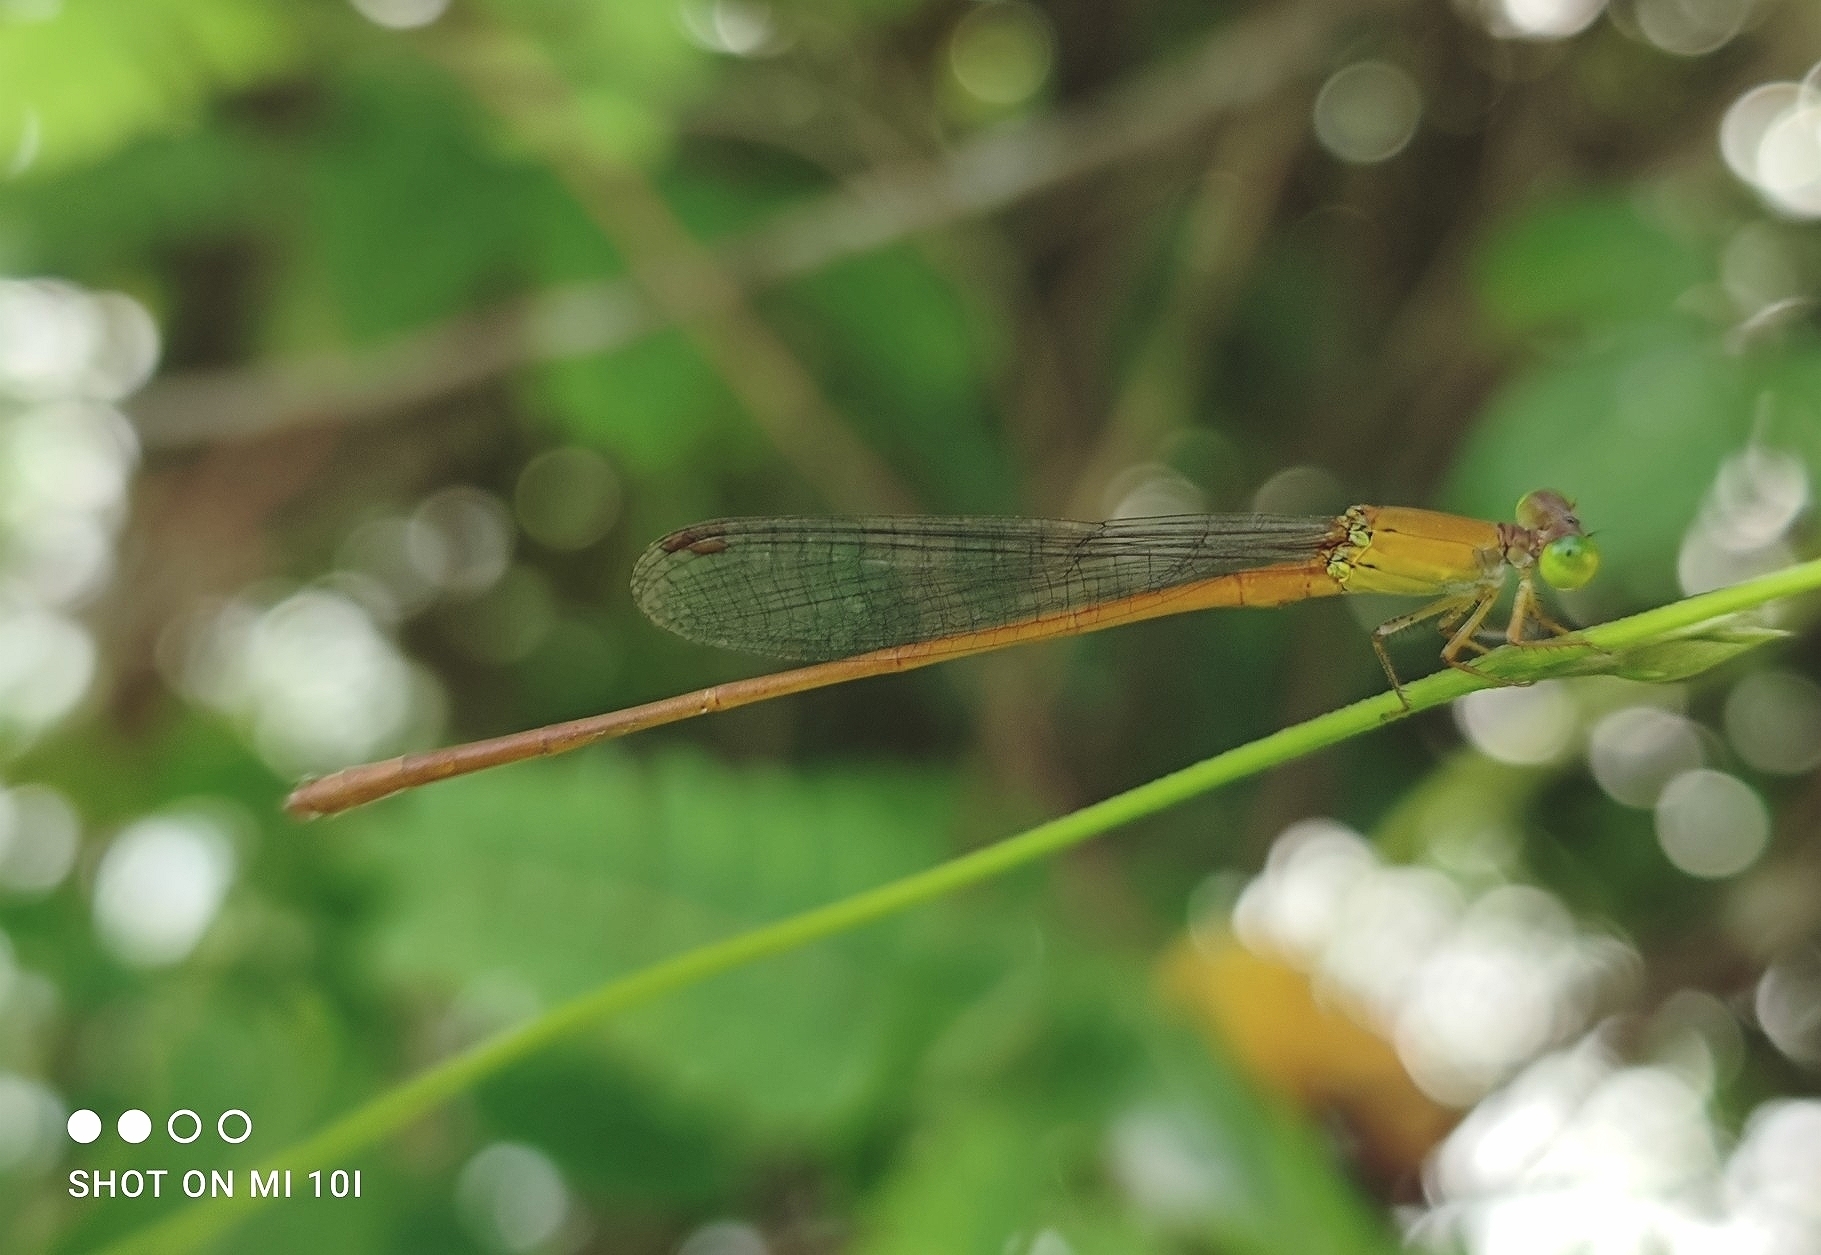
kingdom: Animalia
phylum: Arthropoda
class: Insecta
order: Odonata
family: Coenagrionidae
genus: Ceriagrion
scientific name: Ceriagrion olivaceum
